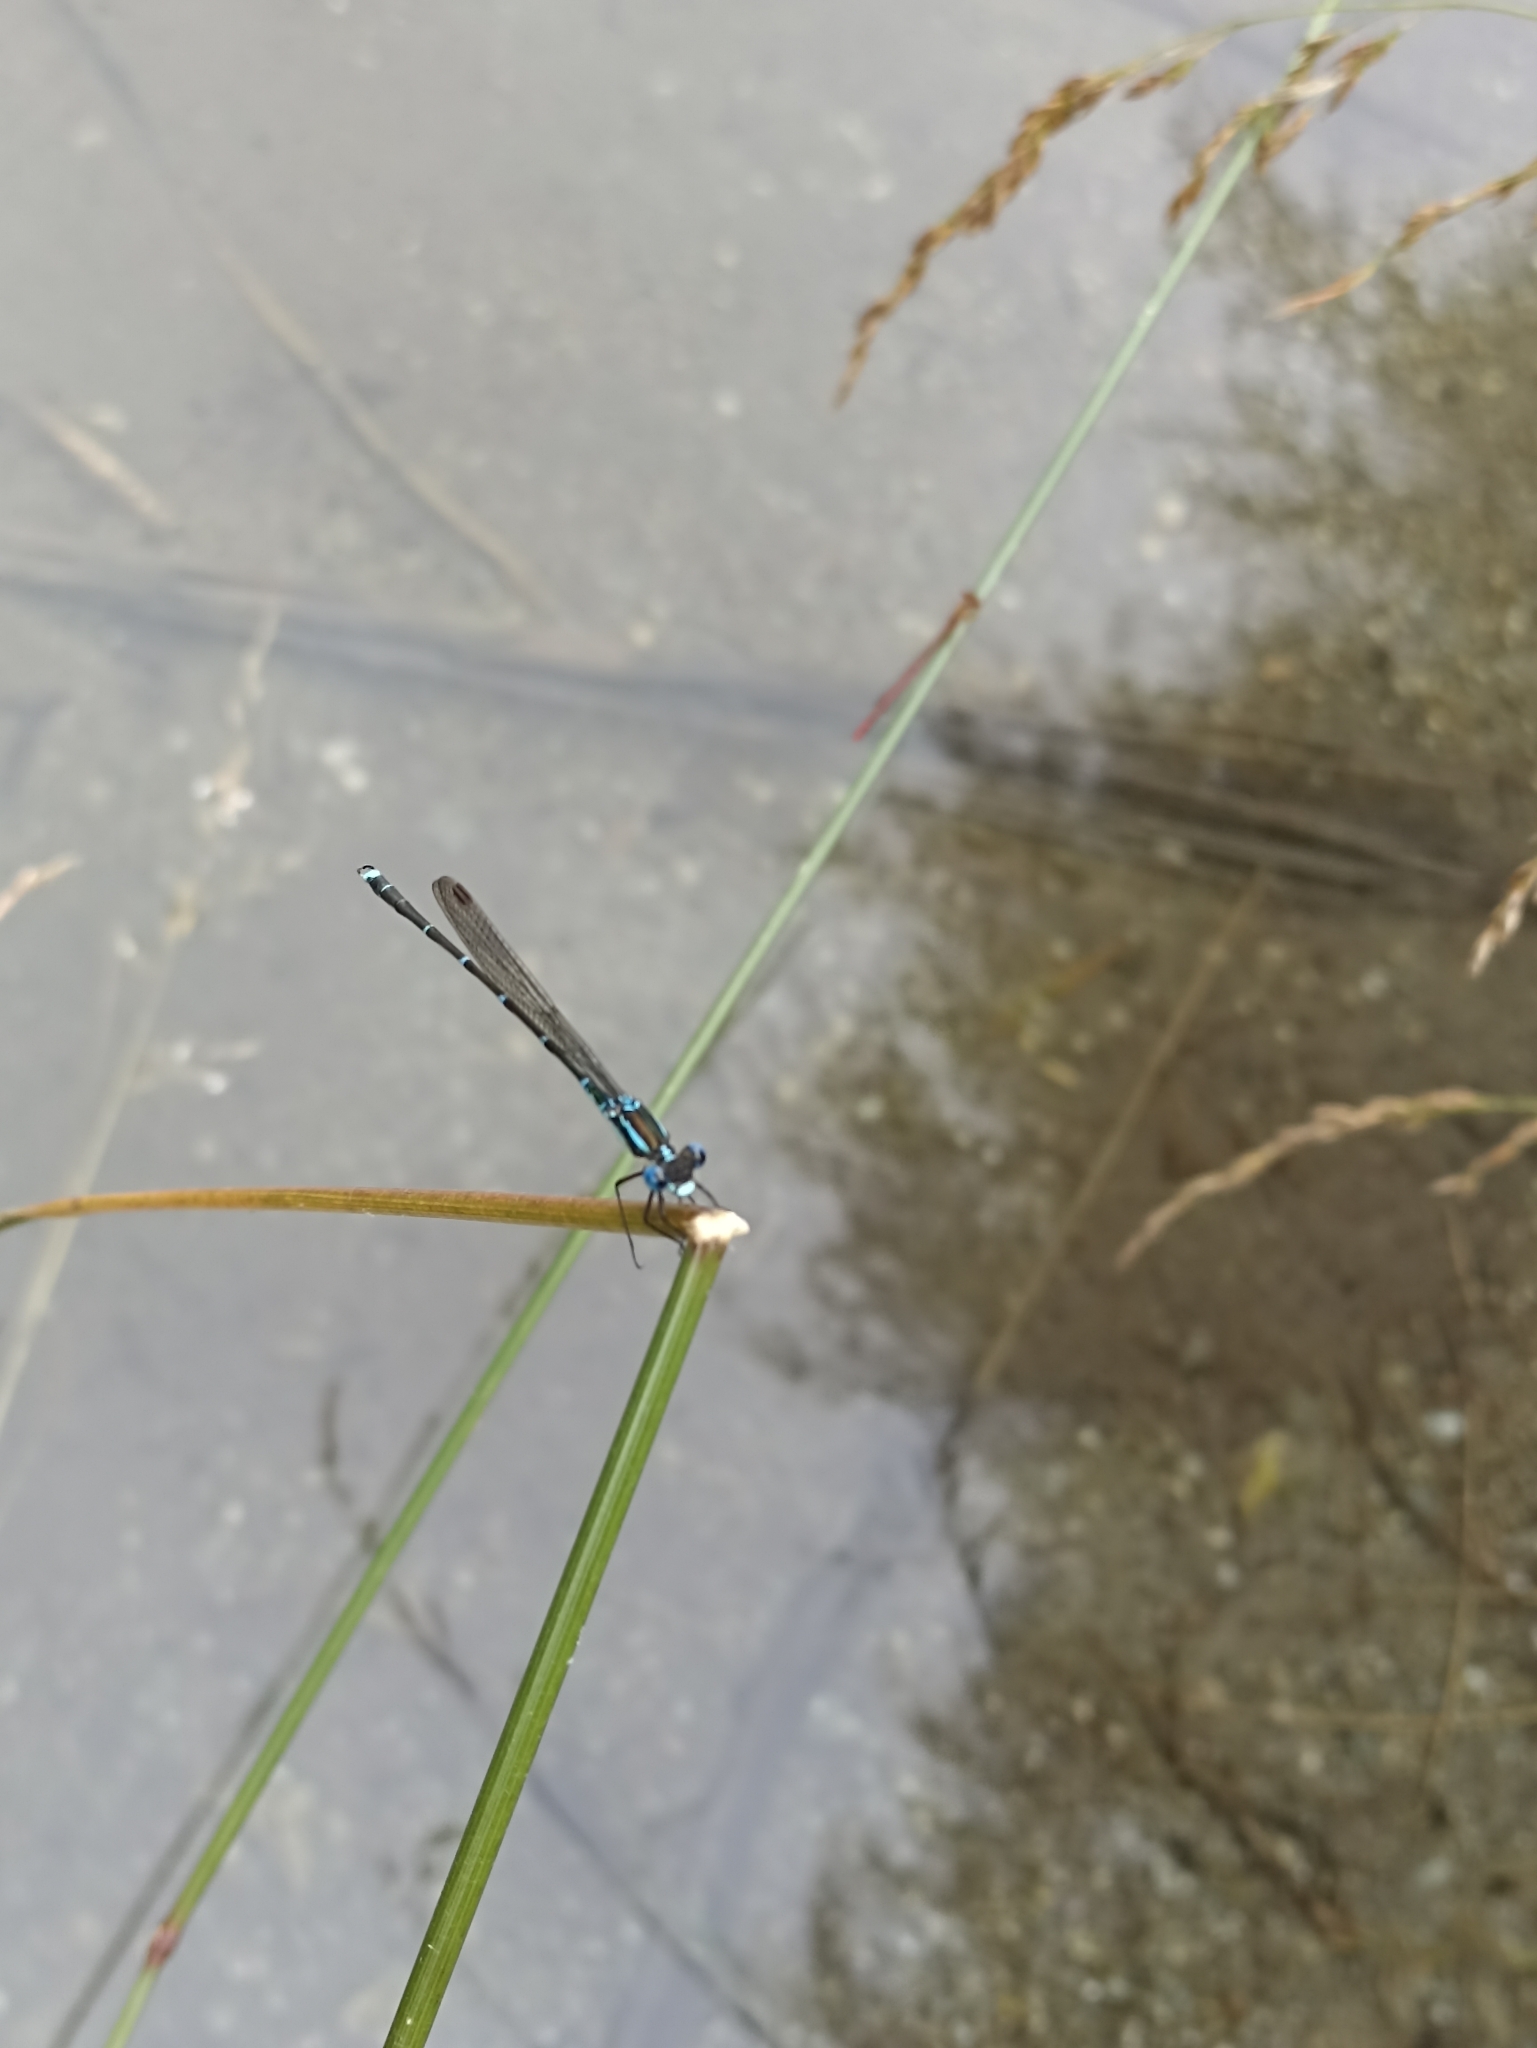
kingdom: Animalia
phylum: Arthropoda
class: Insecta
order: Odonata
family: Lestidae
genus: Austrolestes
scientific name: Austrolestes colensonis
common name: Blue damselfly
